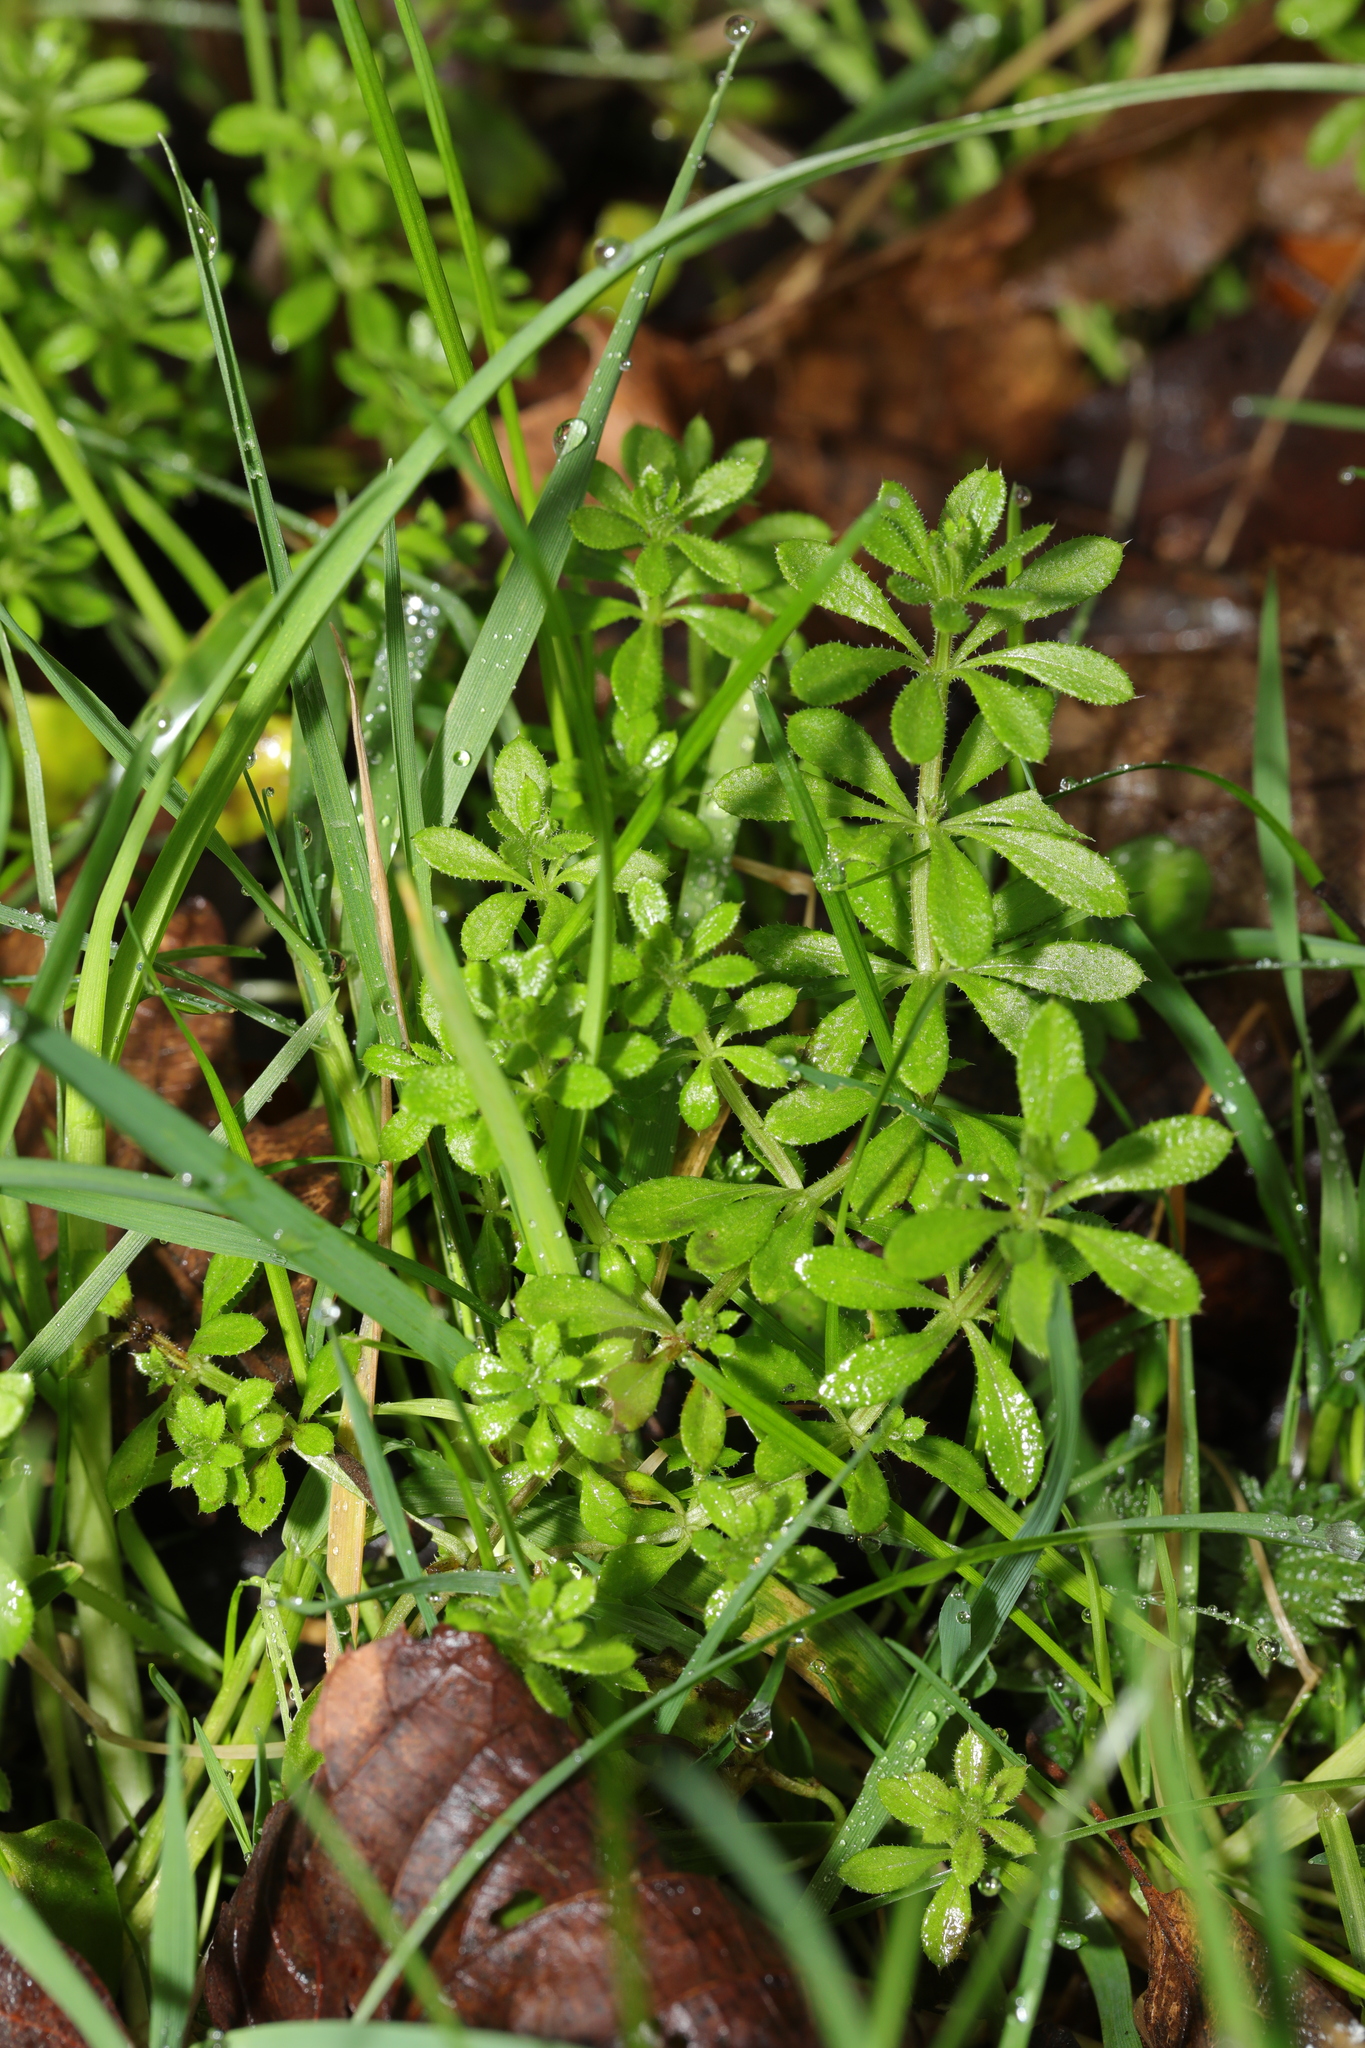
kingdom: Plantae
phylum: Tracheophyta
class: Magnoliopsida
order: Gentianales
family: Rubiaceae
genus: Galium
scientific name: Galium aparine
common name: Cleavers
